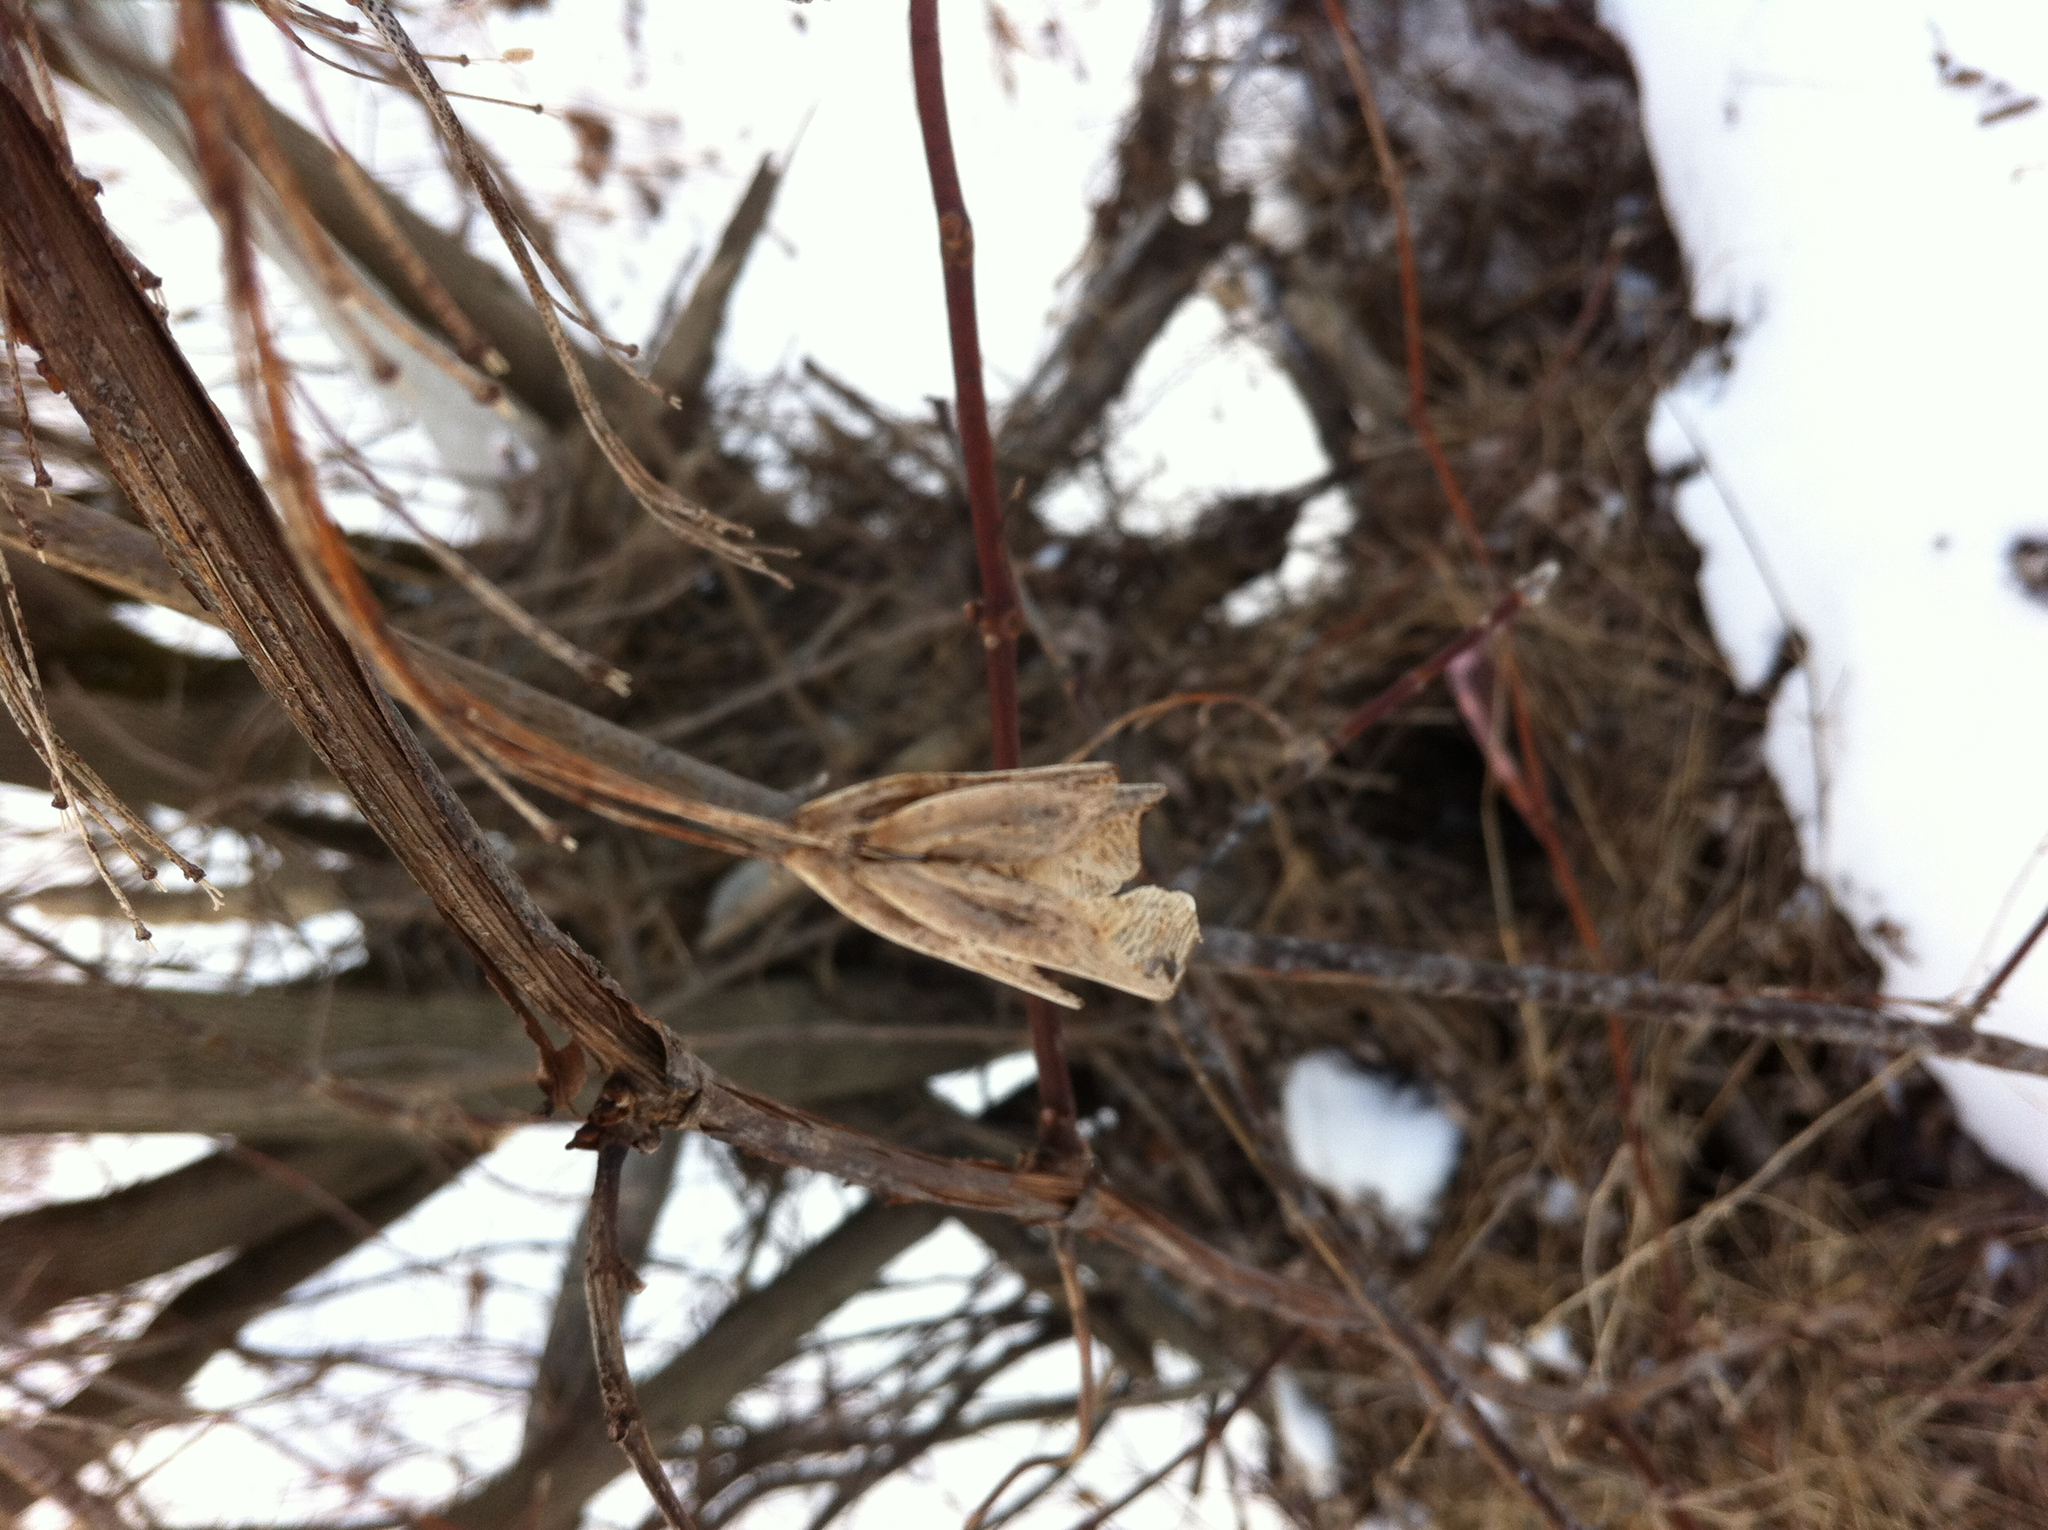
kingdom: Plantae
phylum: Tracheophyta
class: Magnoliopsida
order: Sapindales
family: Sapindaceae
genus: Acer
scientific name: Acer negundo
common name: Ashleaf maple
